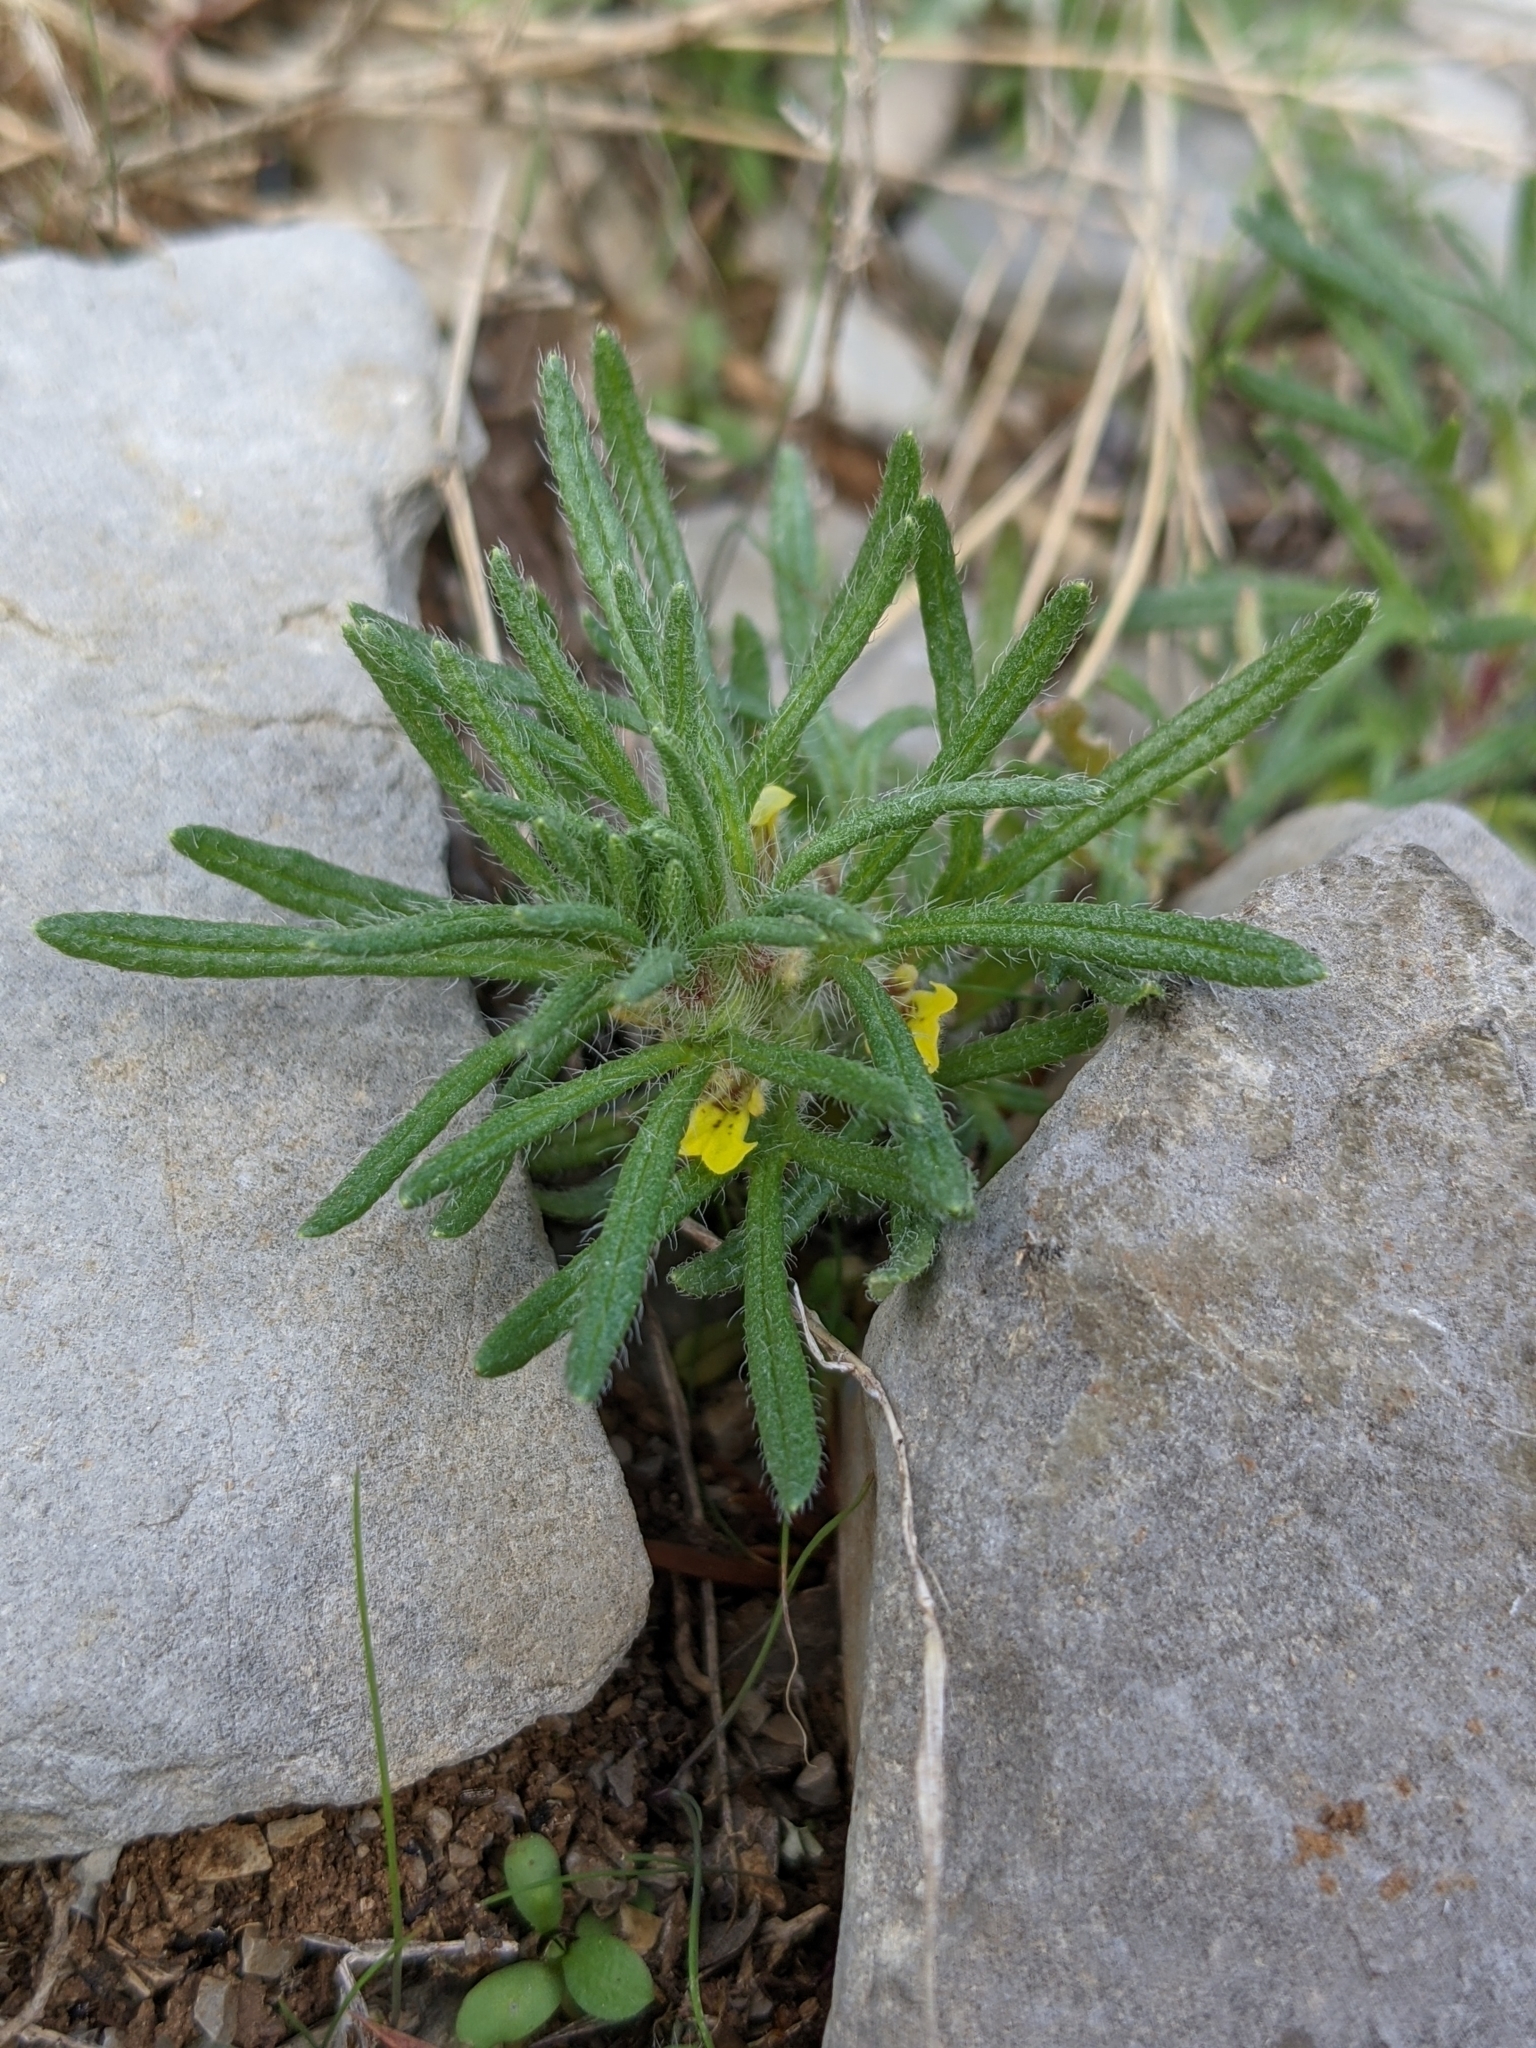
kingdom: Plantae
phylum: Tracheophyta
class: Magnoliopsida
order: Lamiales
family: Lamiaceae
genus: Ajuga
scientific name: Ajuga chamaepitys
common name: Ground-pine
